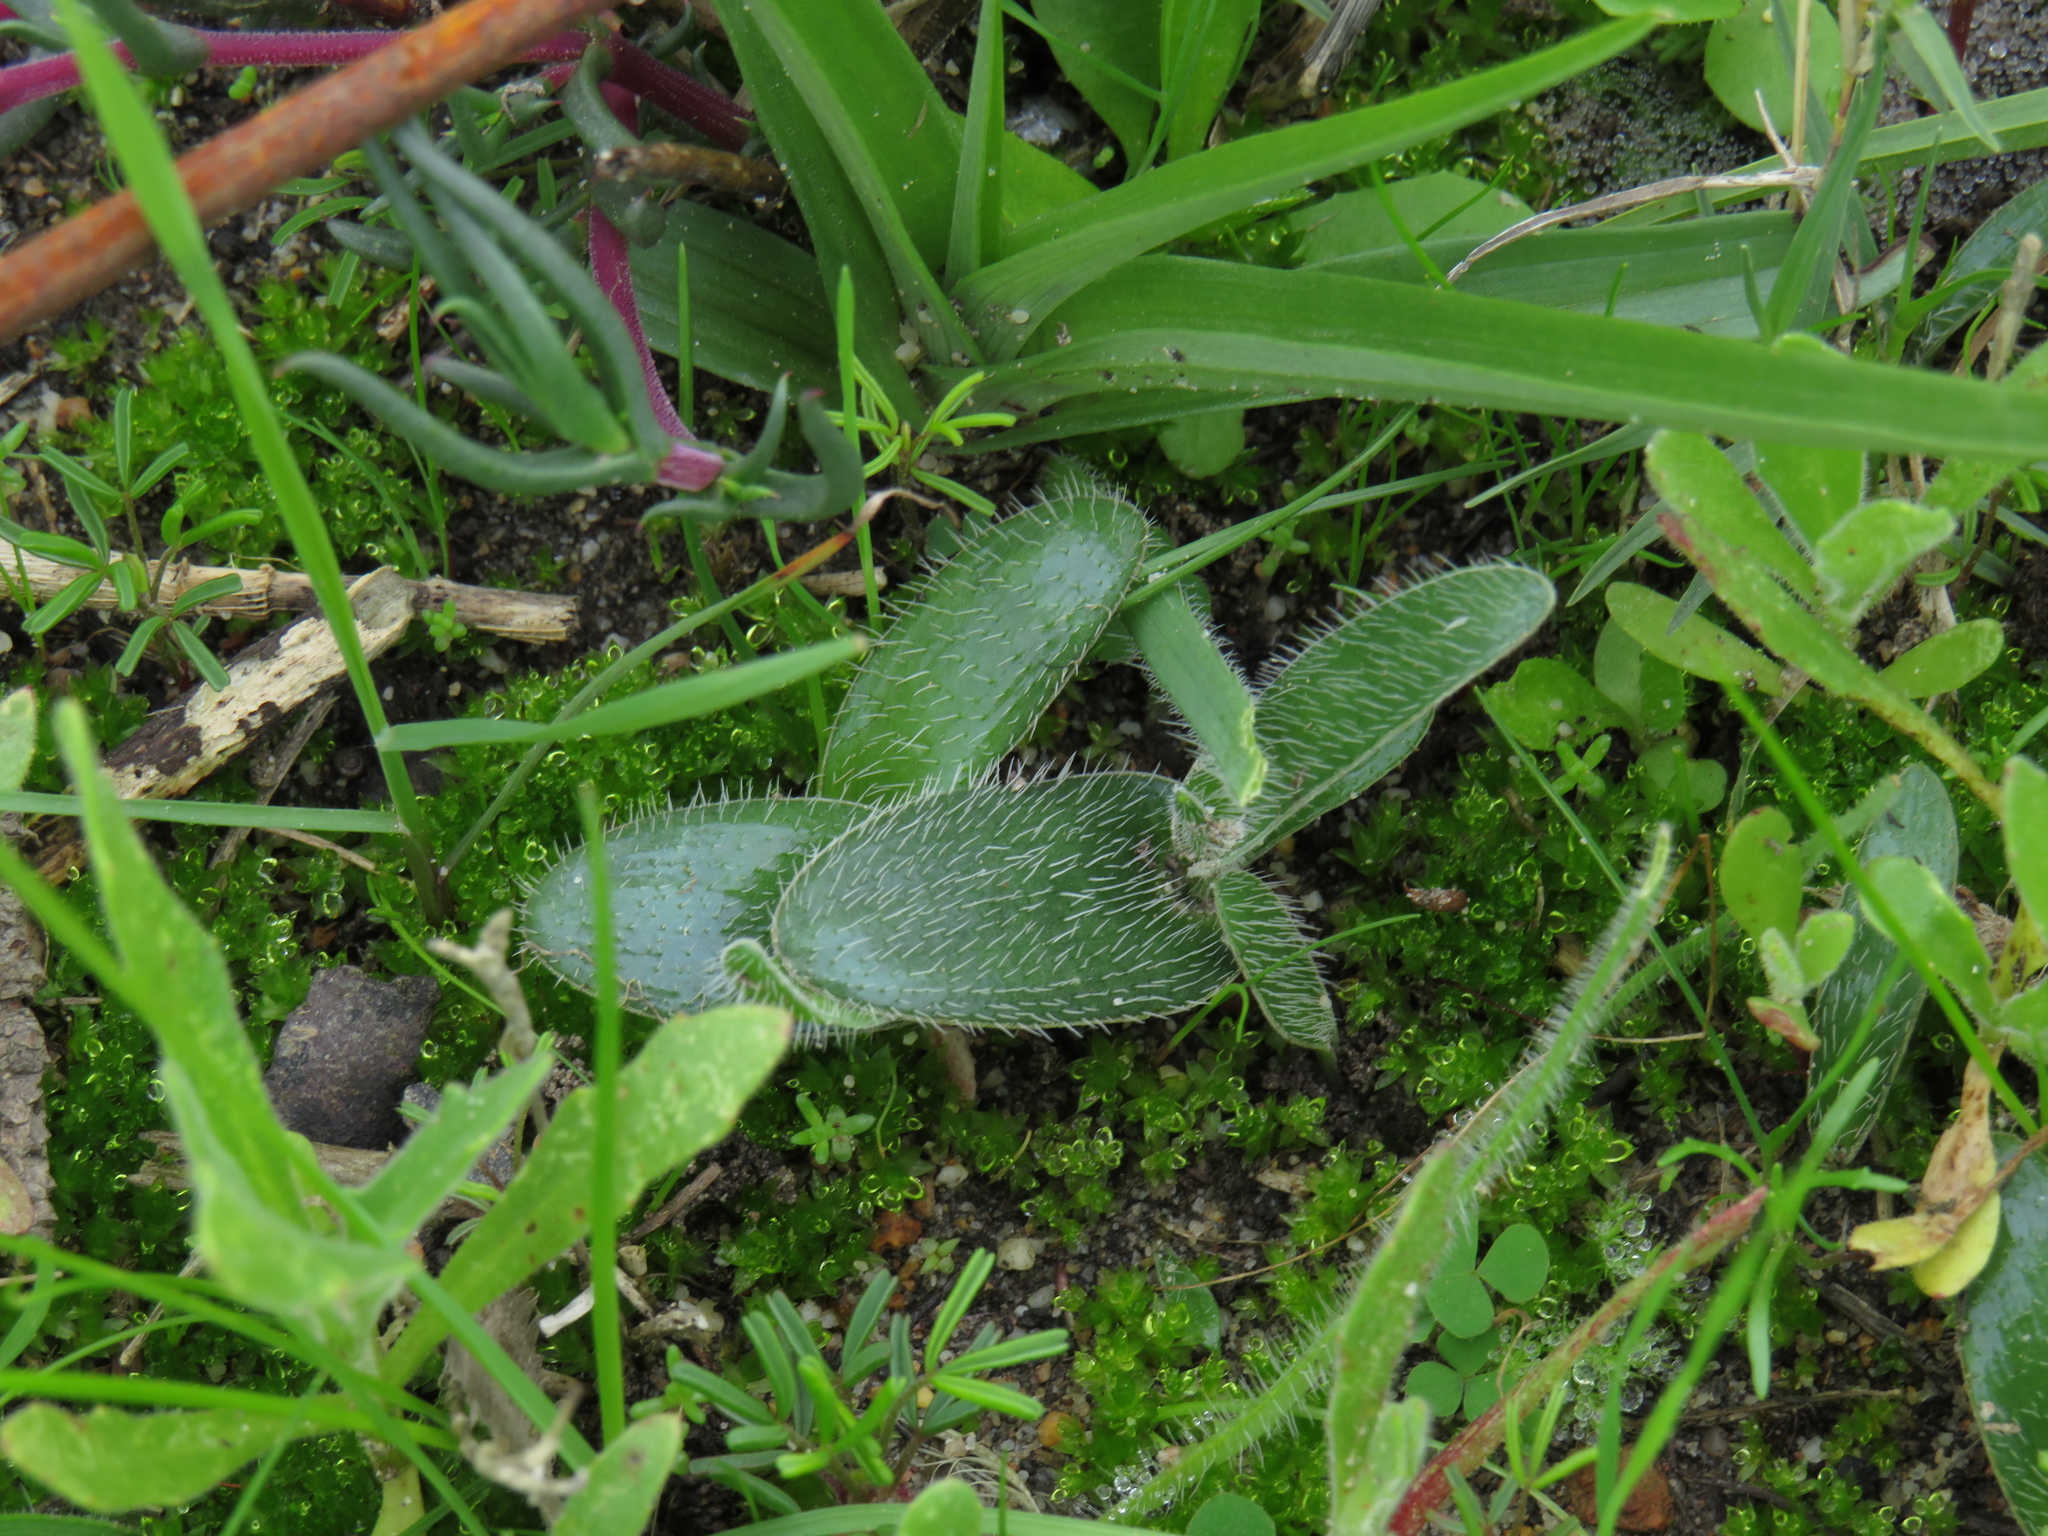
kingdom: Plantae
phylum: Tracheophyta
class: Liliopsida
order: Asparagales
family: Asparagaceae
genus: Ornithogalum
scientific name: Ornithogalum hispidum
